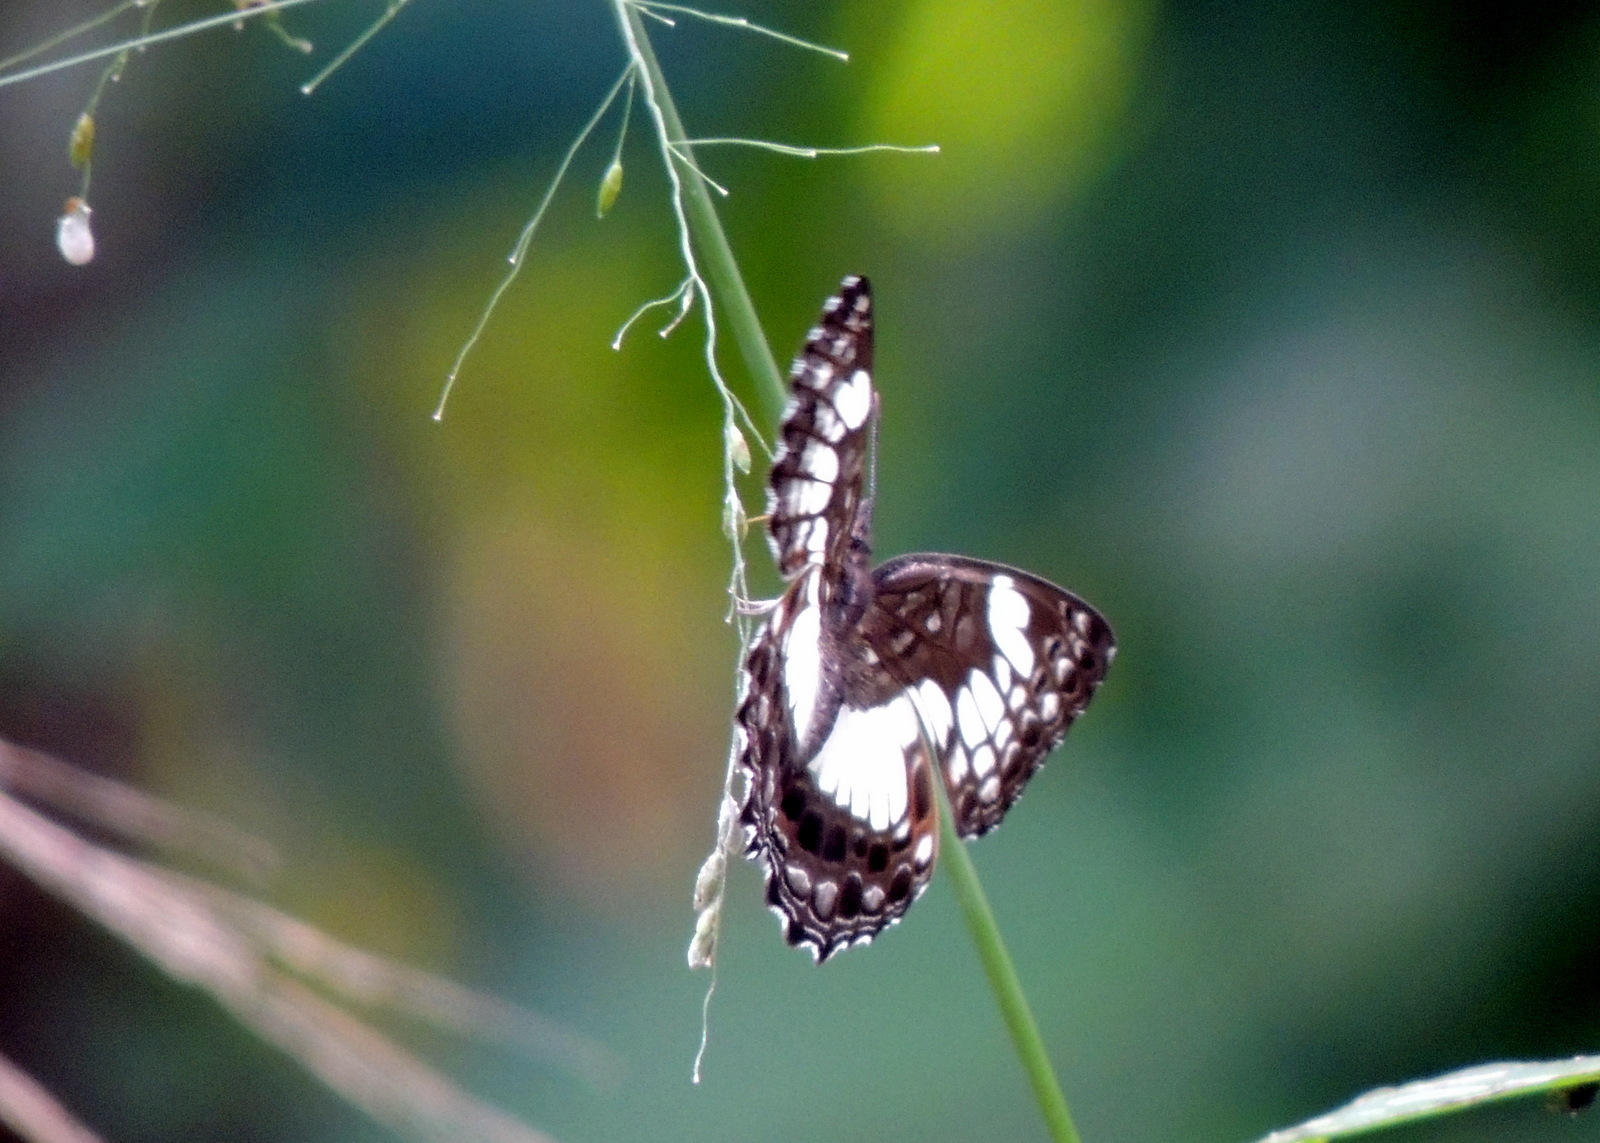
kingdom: Animalia
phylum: Arthropoda
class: Insecta
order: Lepidoptera
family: Nymphalidae
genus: Neptidopsis
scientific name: Neptidopsis ophione
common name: Scalloped false sailor
